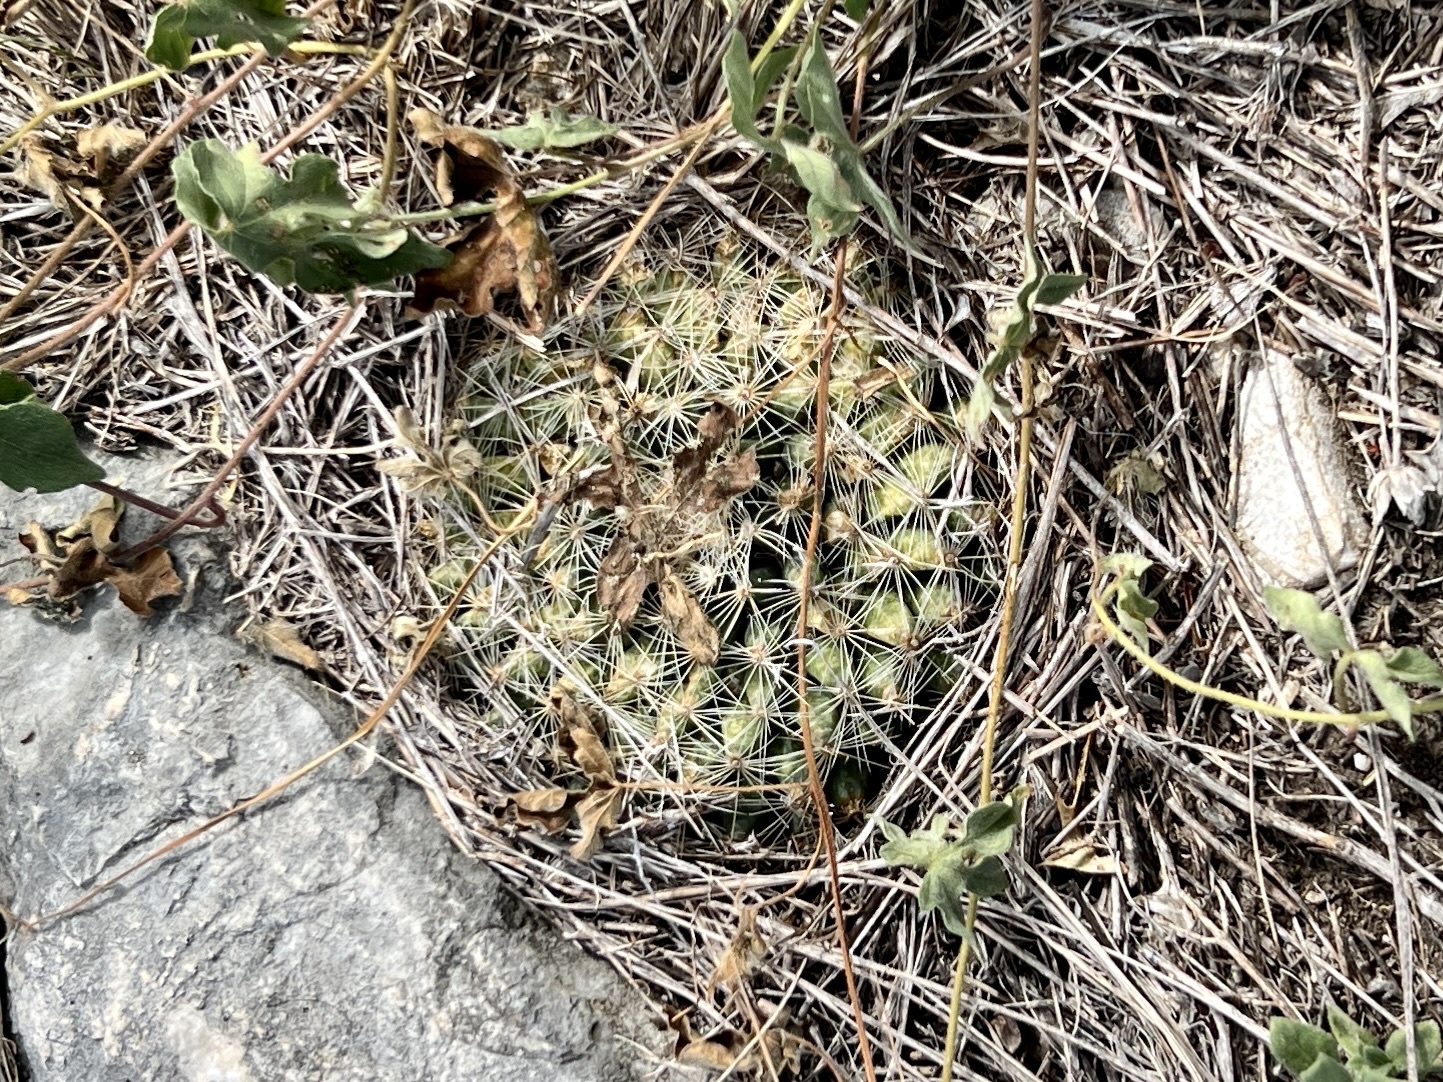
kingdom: Plantae
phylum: Tracheophyta
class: Magnoliopsida
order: Caryophyllales
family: Cactaceae
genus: Mammillaria
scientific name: Mammillaria heyderi
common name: Little nipple cactus
